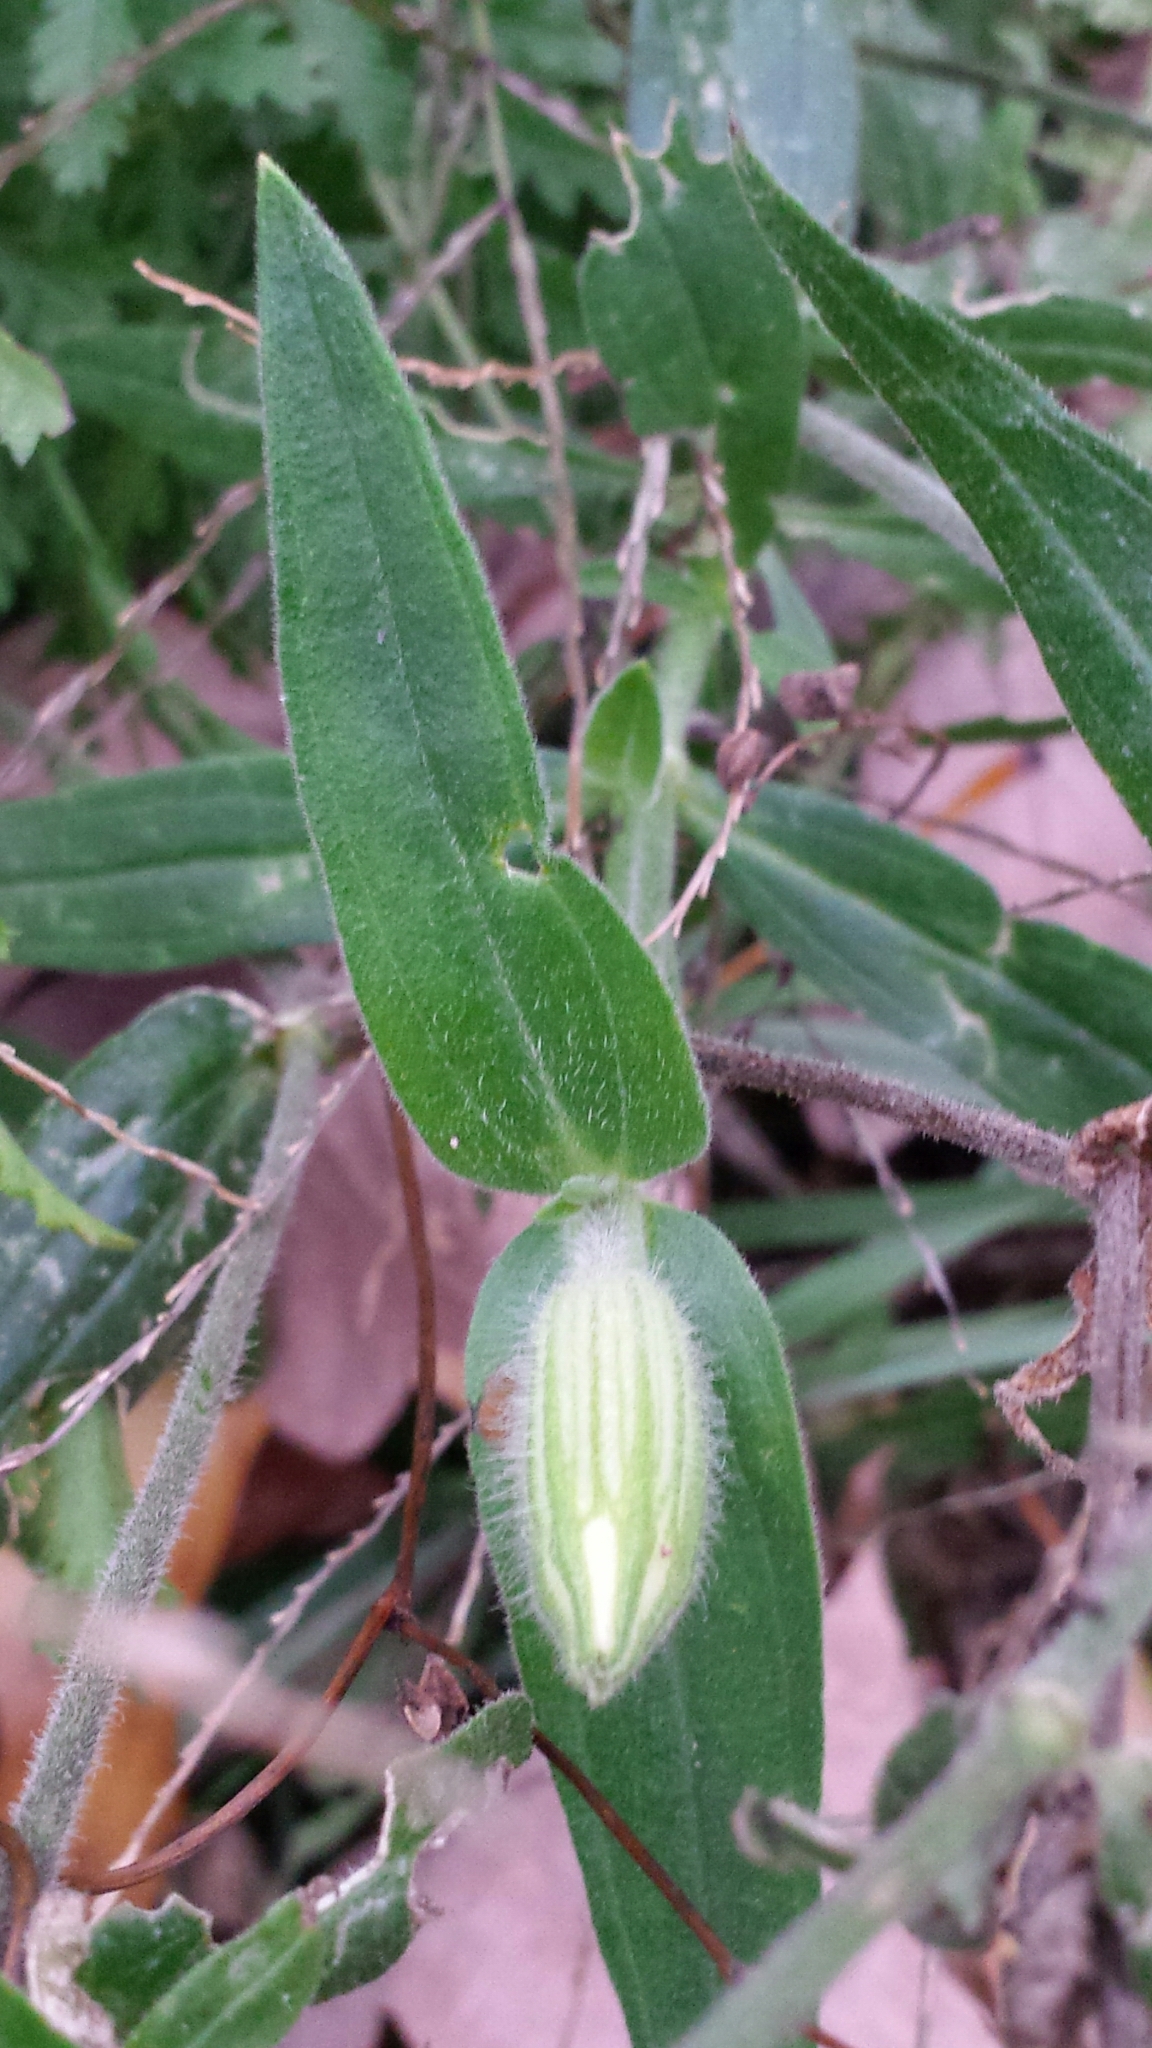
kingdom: Plantae
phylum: Tracheophyta
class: Magnoliopsida
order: Caryophyllales
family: Caryophyllaceae
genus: Silene
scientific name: Silene latifolia
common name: White campion
